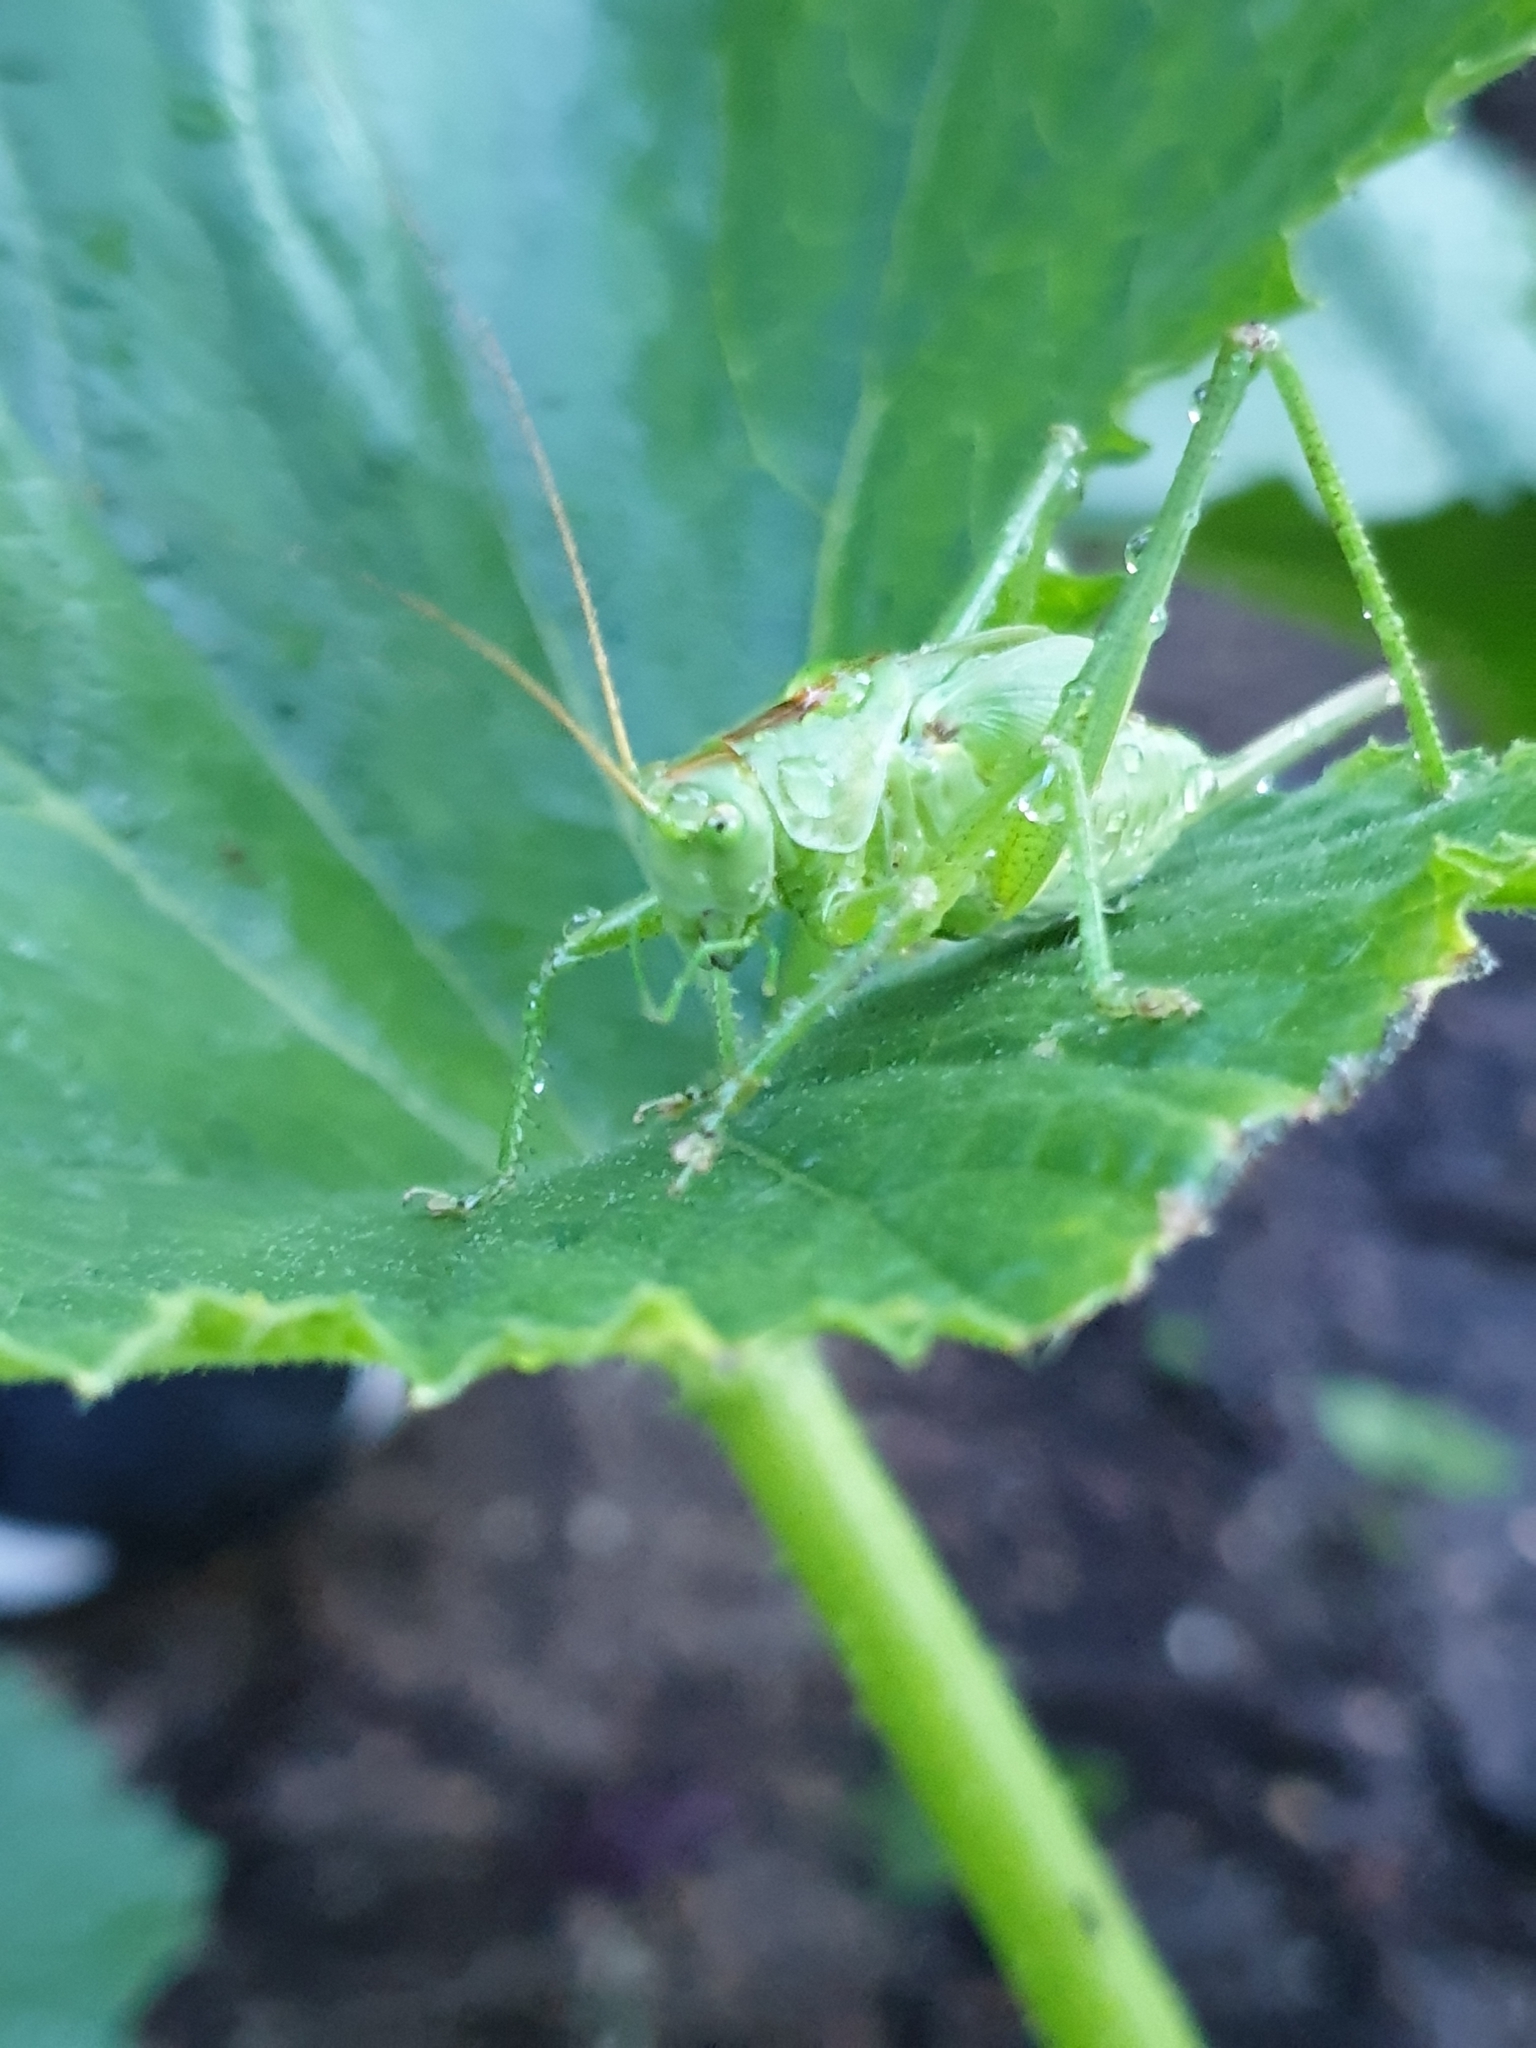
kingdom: Animalia
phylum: Arthropoda
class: Insecta
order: Orthoptera
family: Tettigoniidae
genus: Tettigonia
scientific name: Tettigonia viridissima
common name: Great green bush-cricket
